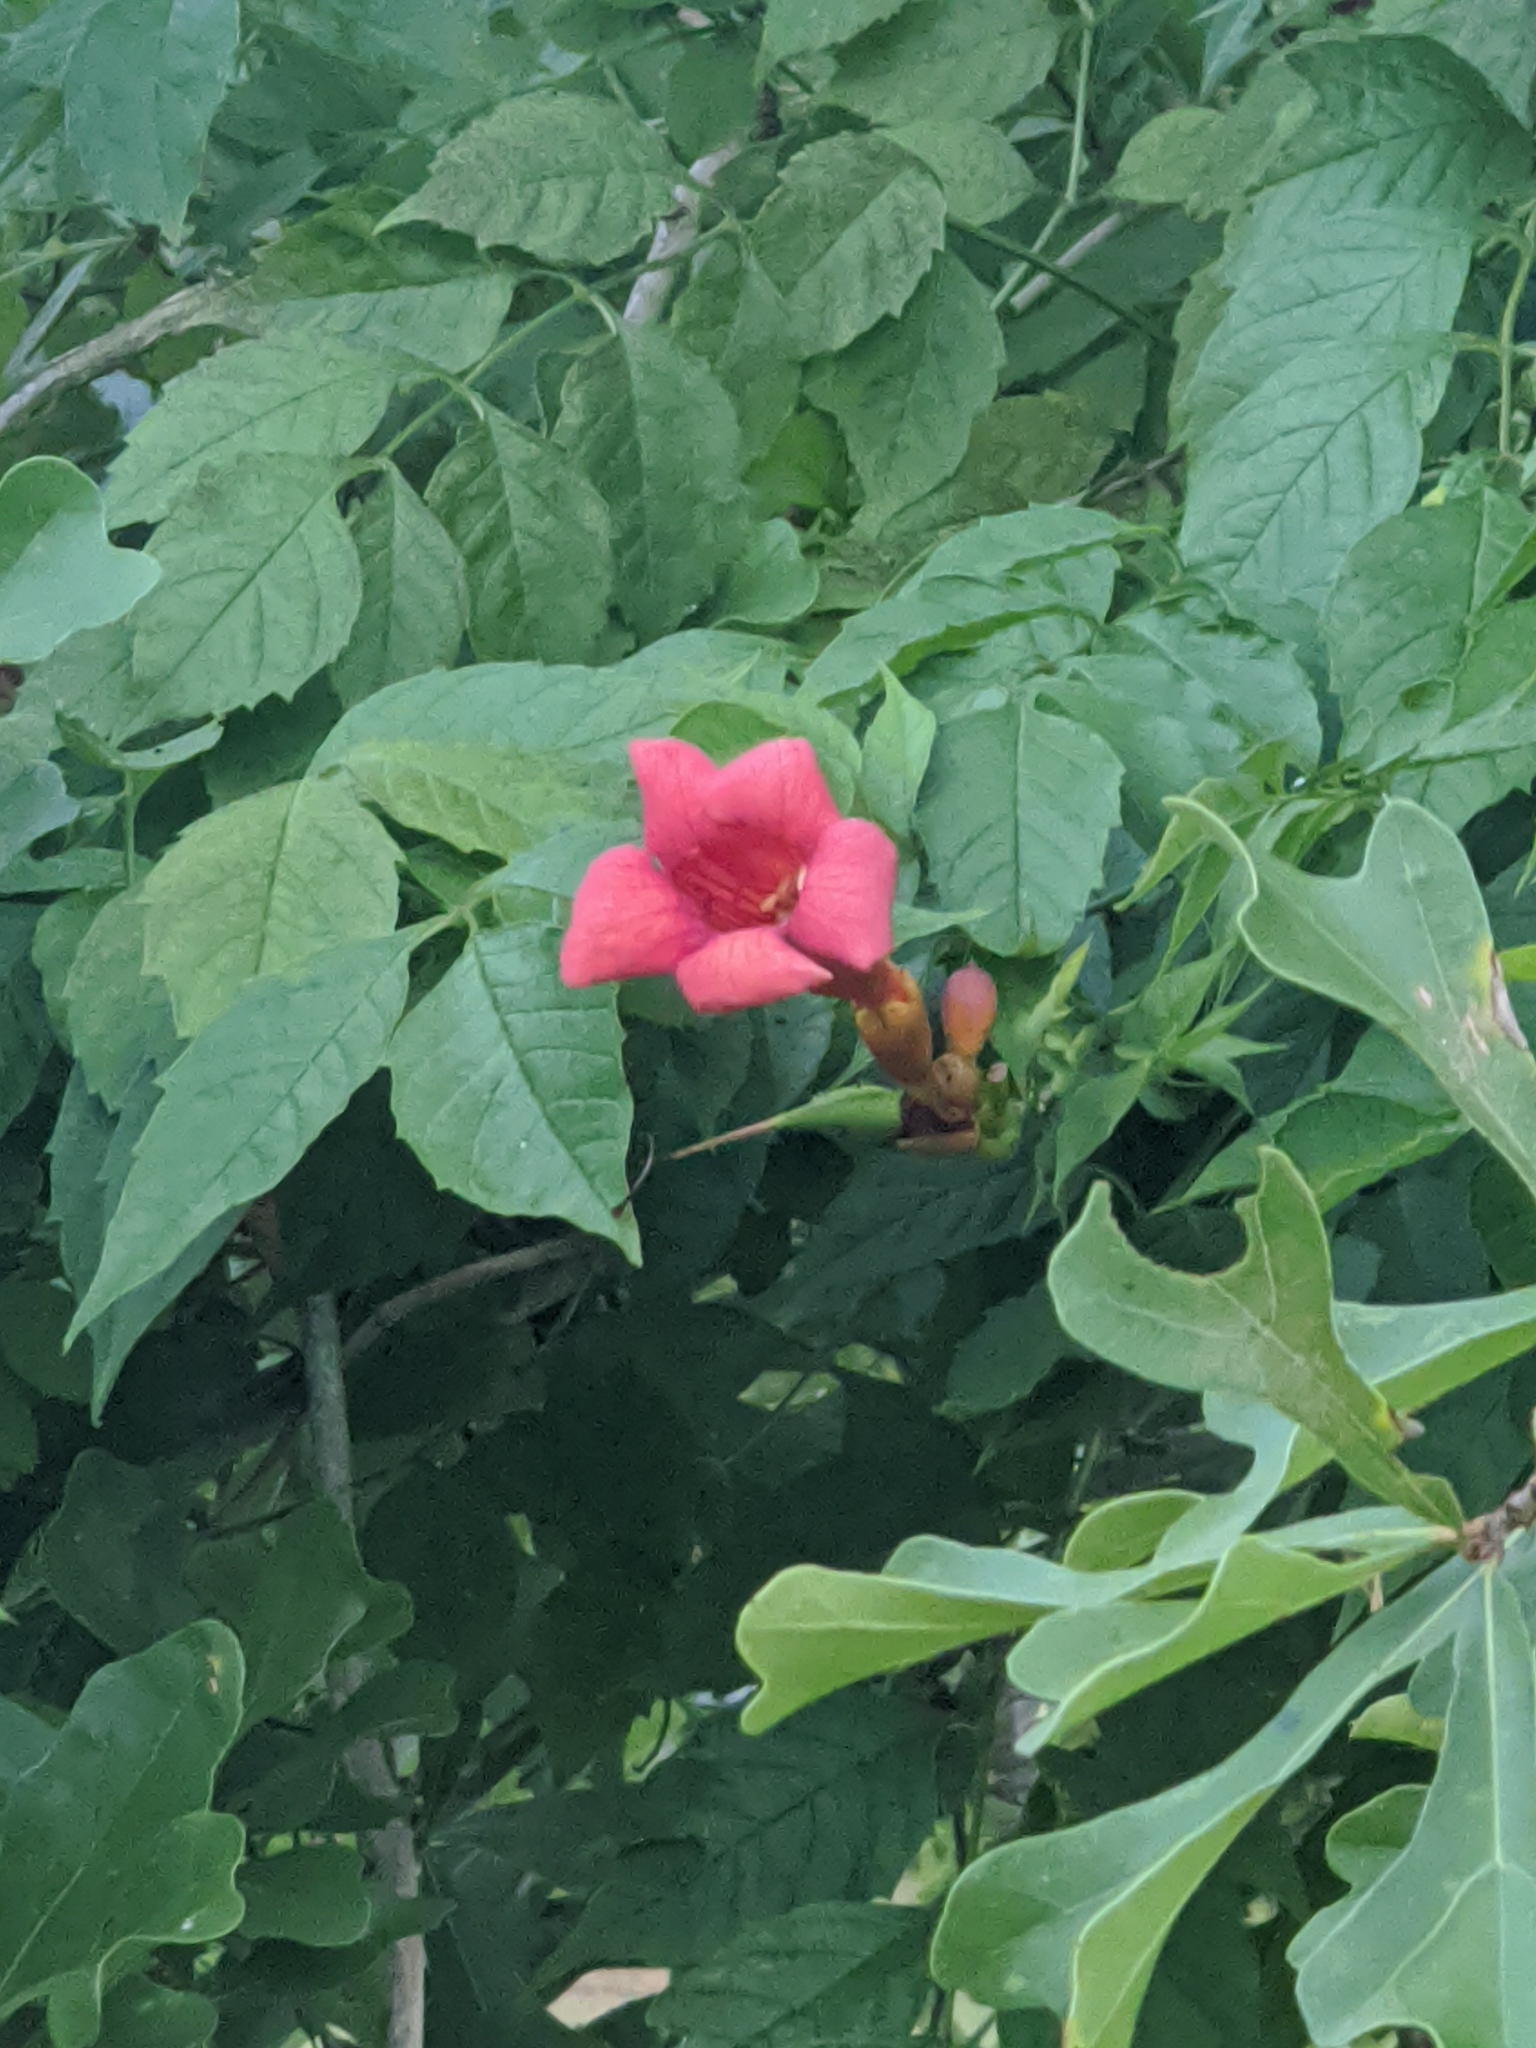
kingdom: Plantae
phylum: Tracheophyta
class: Magnoliopsida
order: Lamiales
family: Bignoniaceae
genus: Campsis
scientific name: Campsis radicans
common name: Trumpet-creeper
